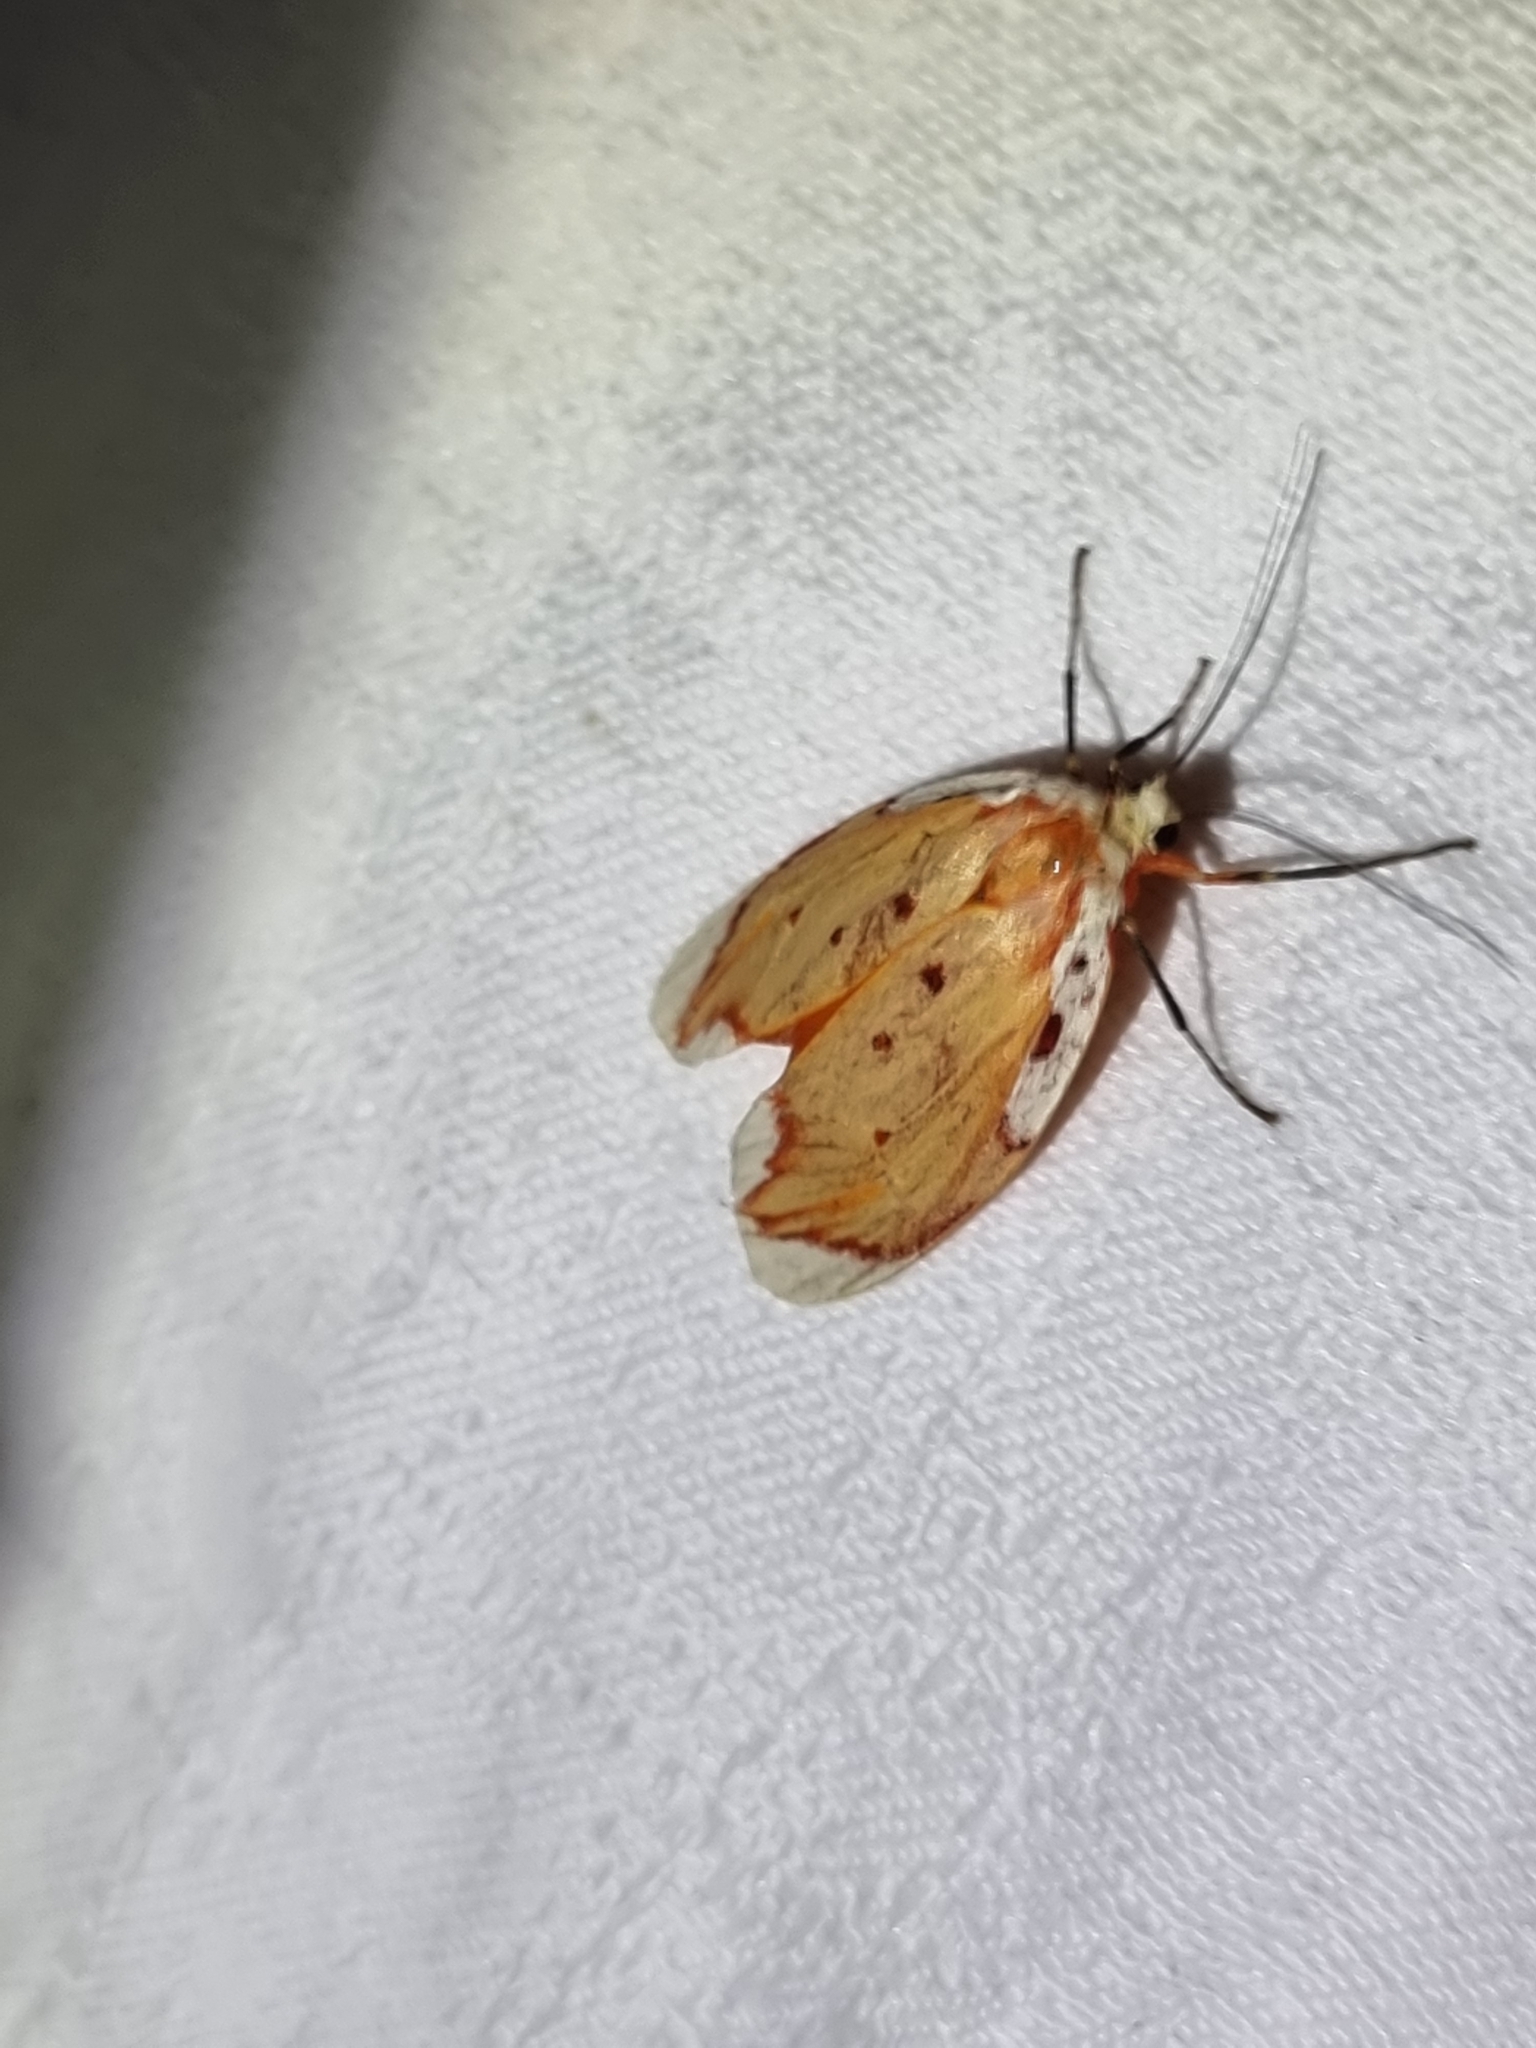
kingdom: Animalia
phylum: Arthropoda
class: Insecta
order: Lepidoptera
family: Lacturidae
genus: Lactura
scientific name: Lactura sapotearum
